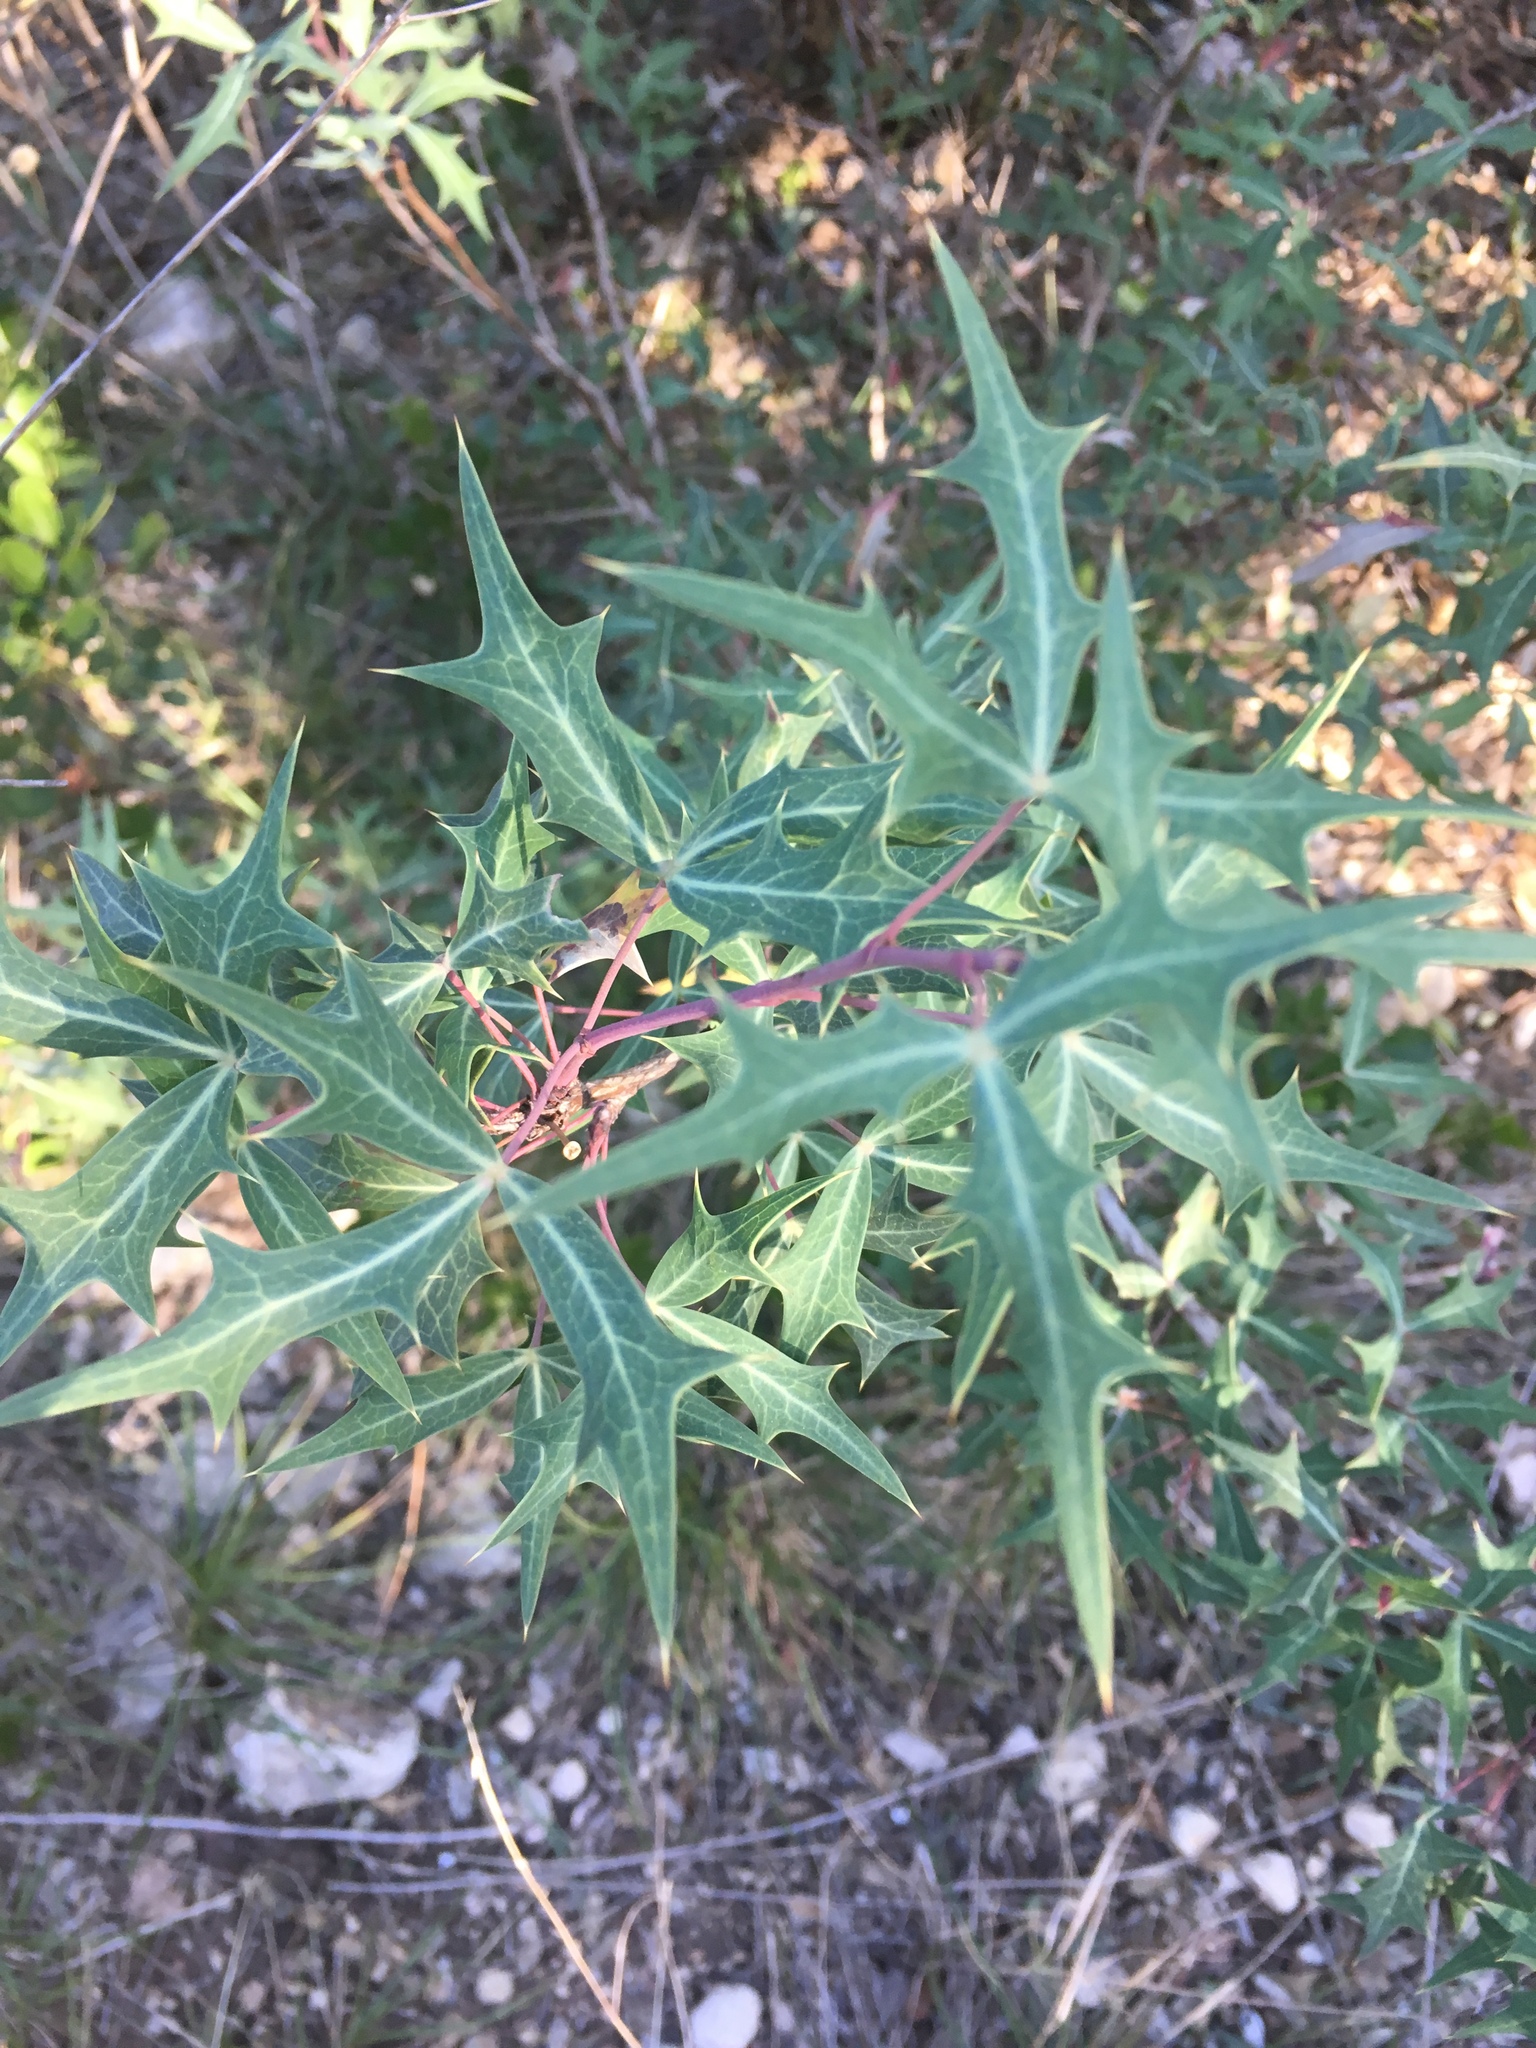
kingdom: Plantae
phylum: Tracheophyta
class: Magnoliopsida
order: Ranunculales
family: Berberidaceae
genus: Alloberberis
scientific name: Alloberberis trifoliolata
